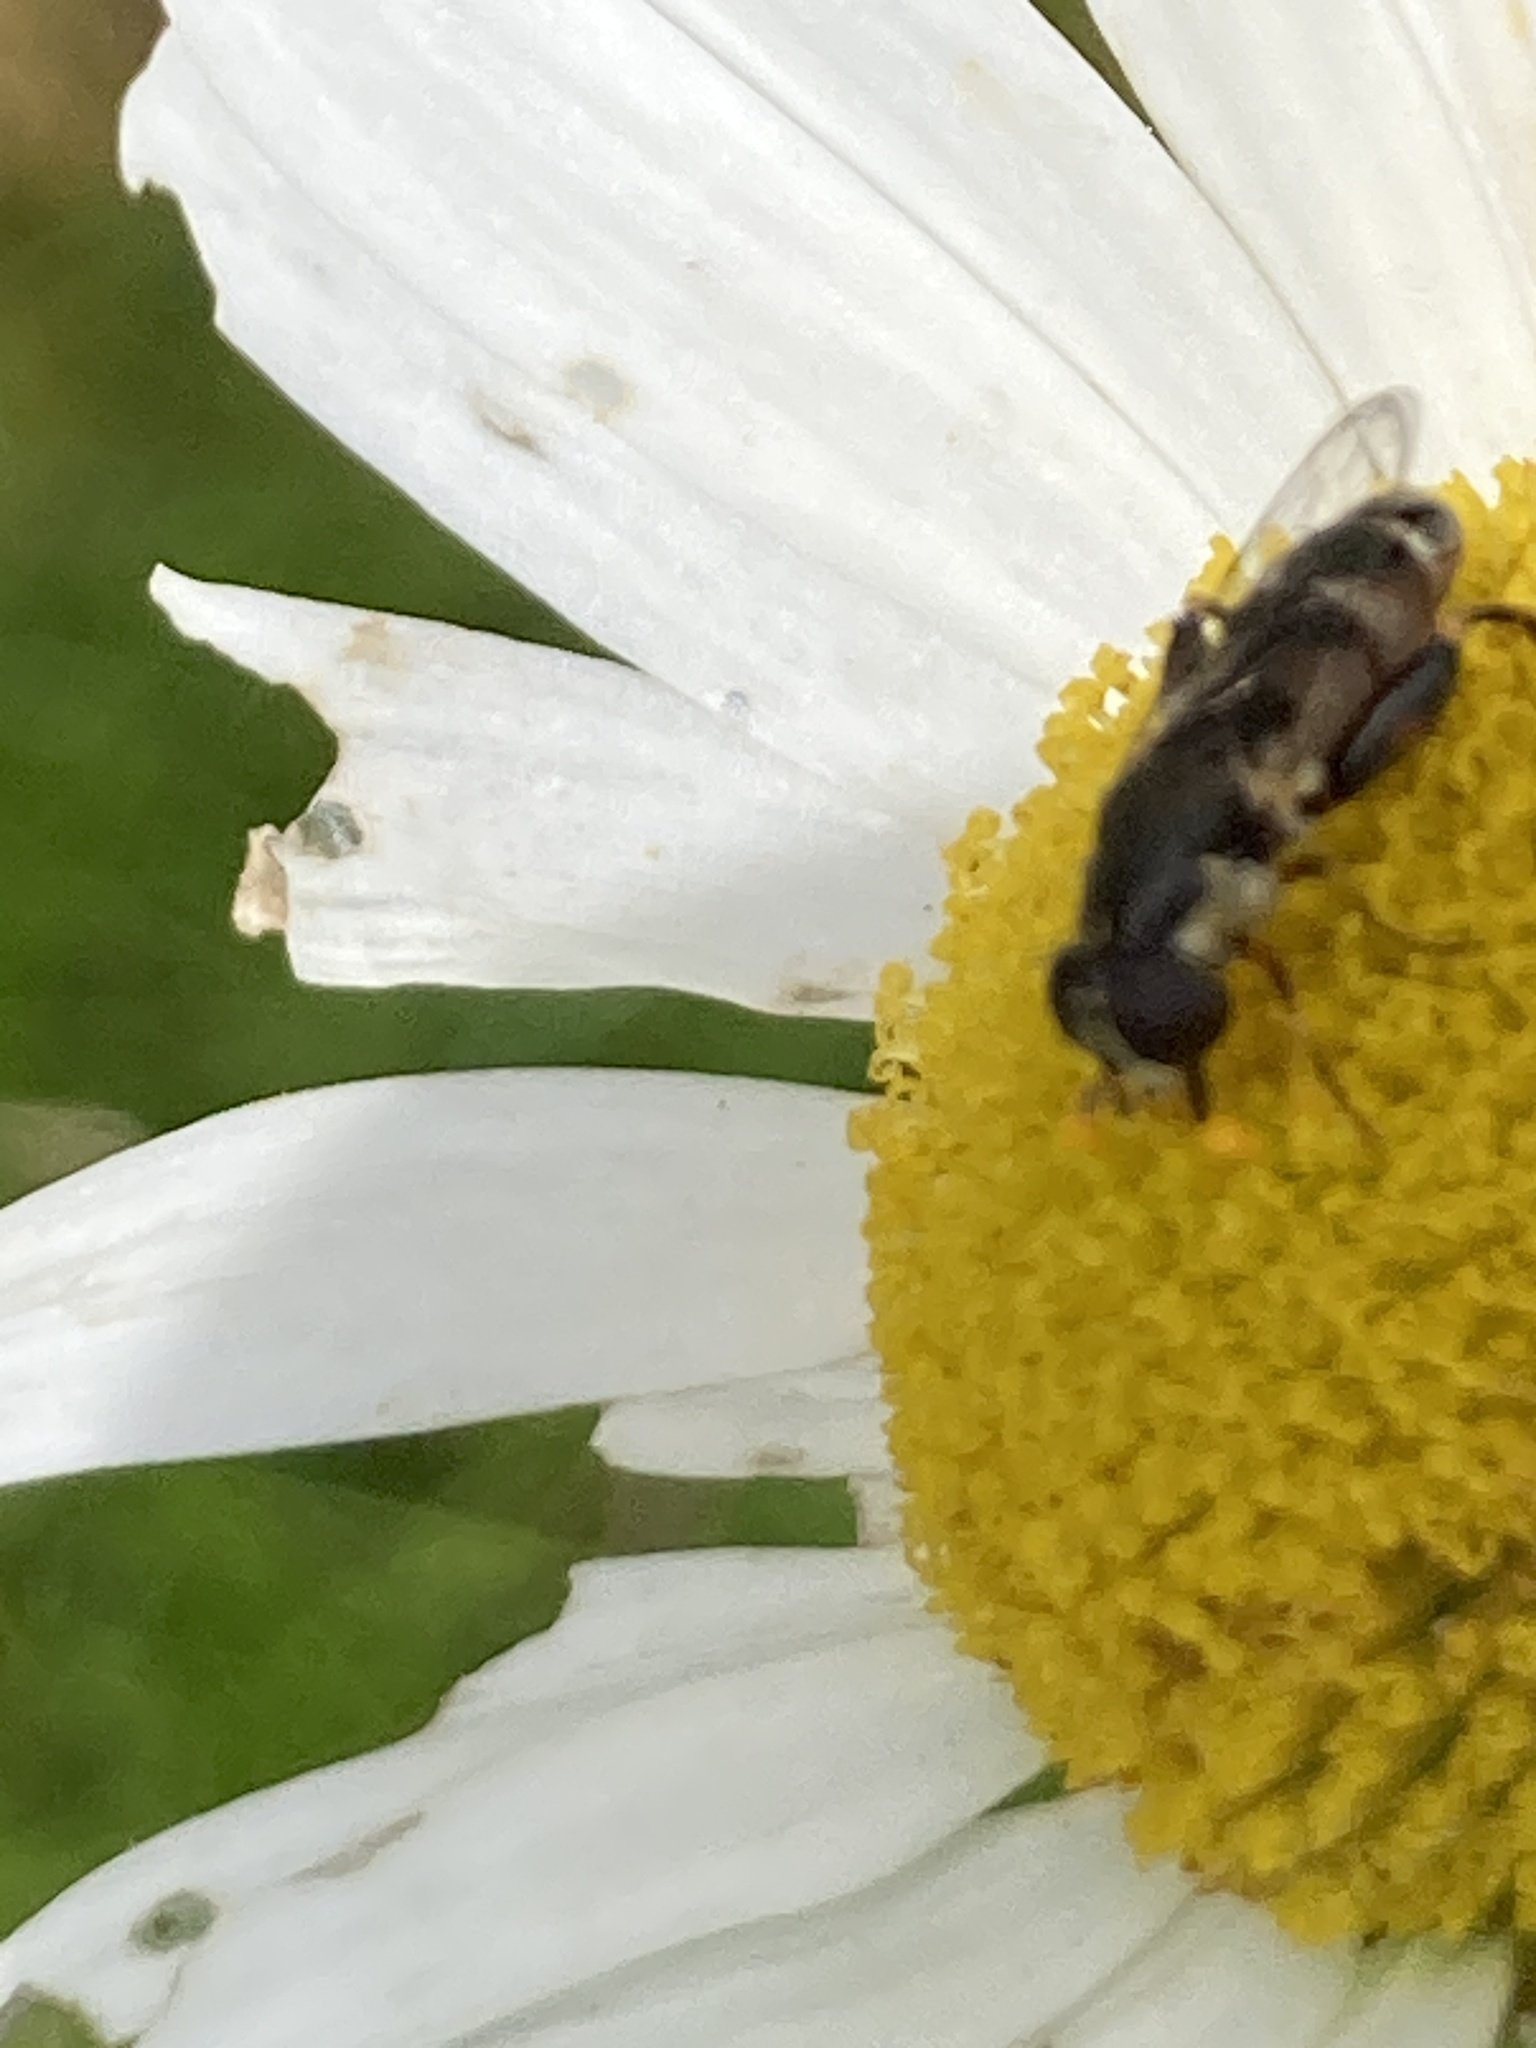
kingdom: Animalia
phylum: Arthropoda
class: Insecta
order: Diptera
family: Syrphidae
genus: Syritta
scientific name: Syritta pipiens
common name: Hover fly
